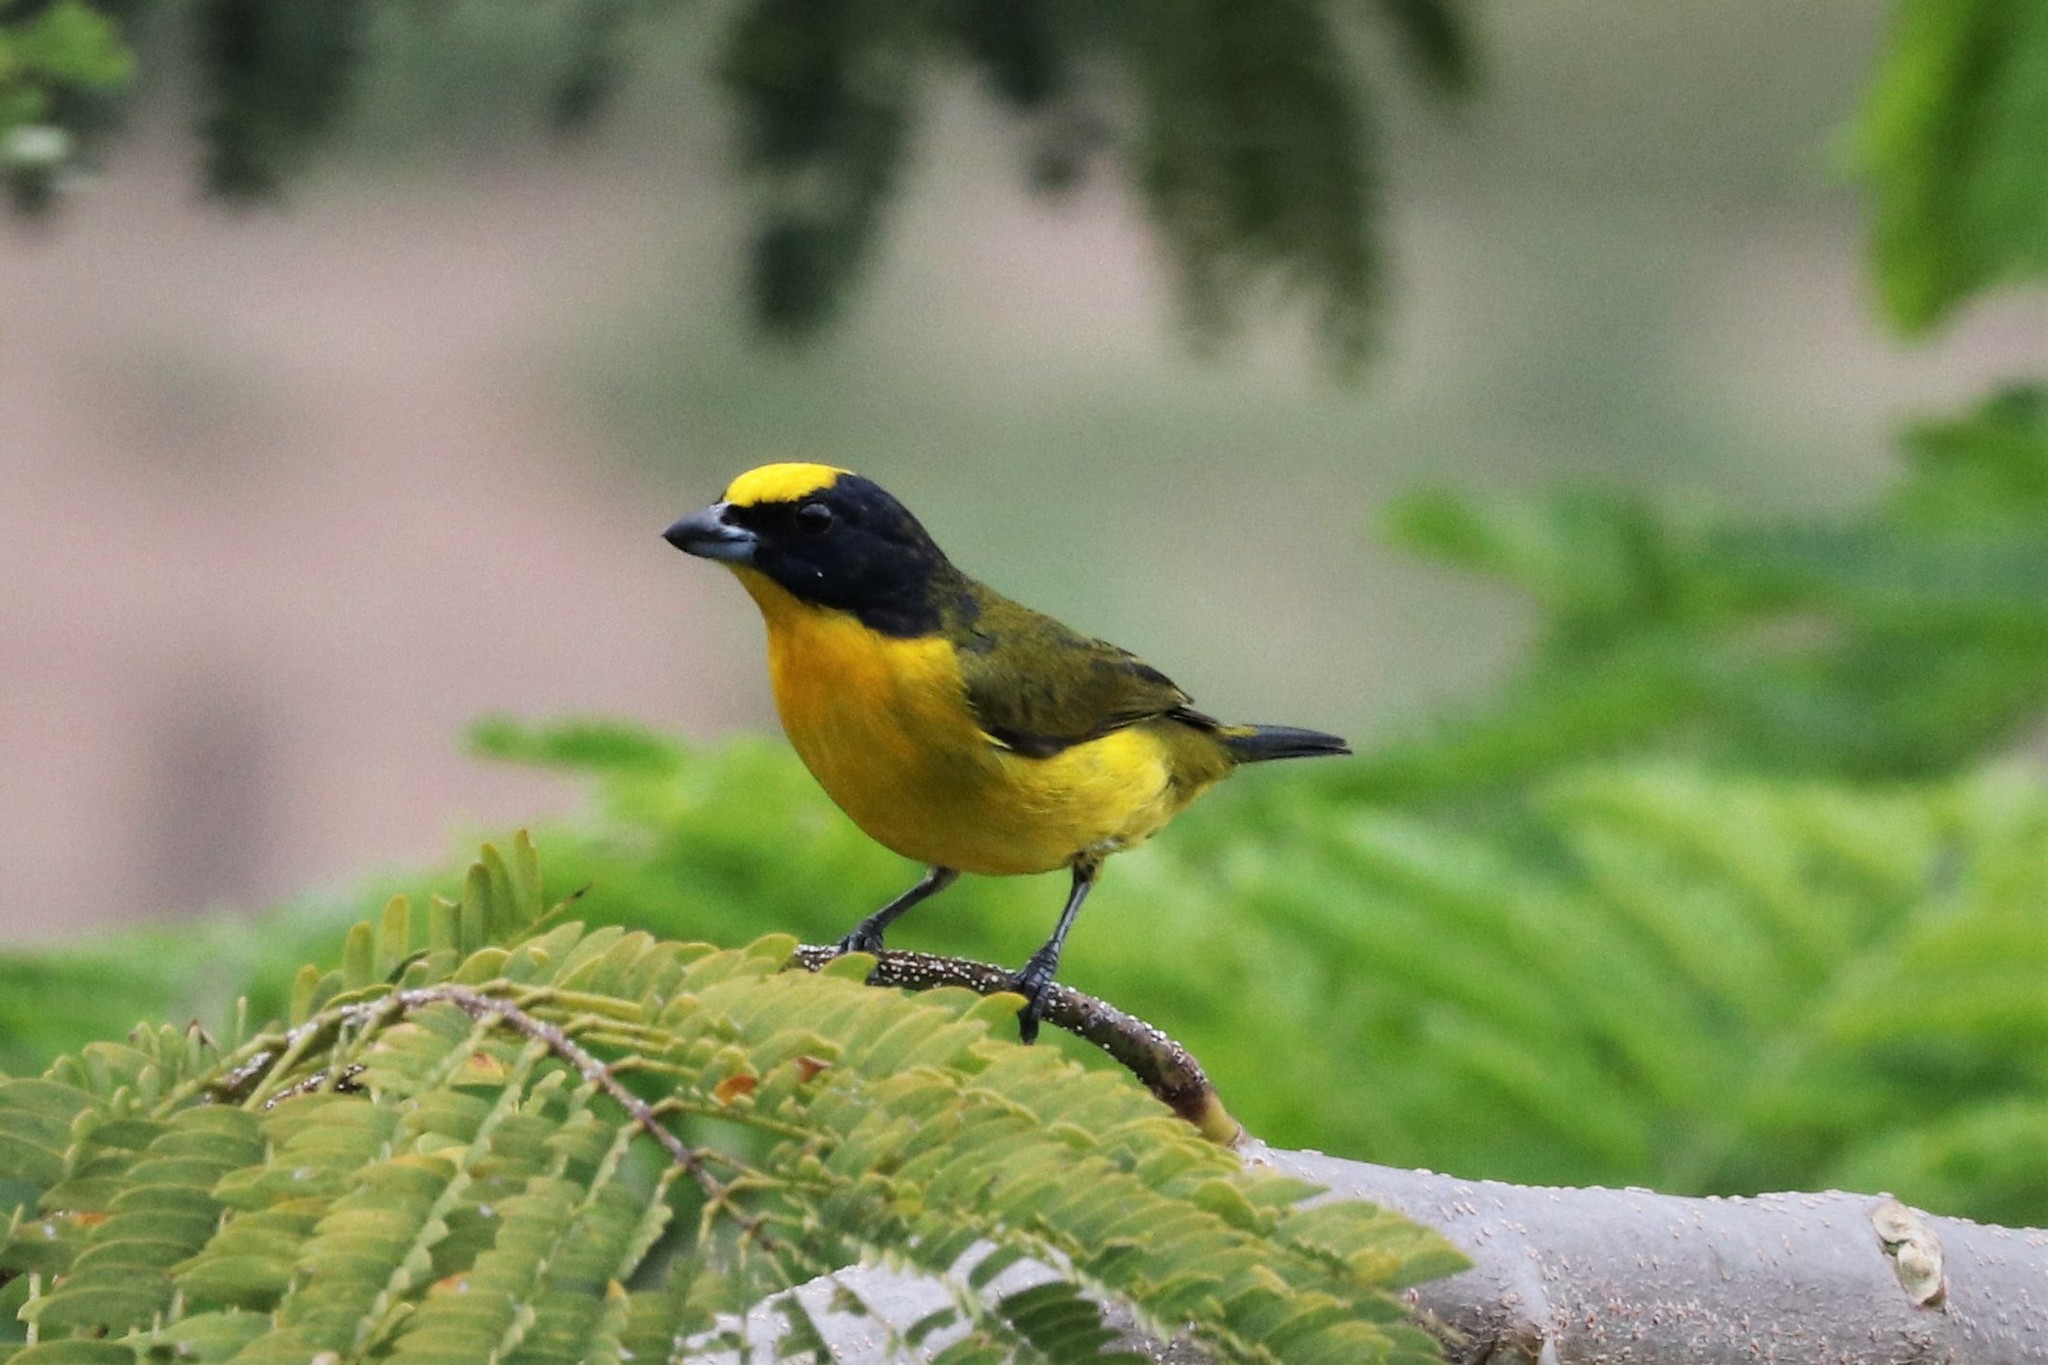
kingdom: Animalia
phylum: Chordata
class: Aves
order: Passeriformes
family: Fringillidae
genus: Euphonia
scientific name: Euphonia laniirostris
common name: Thick-billed euphonia
